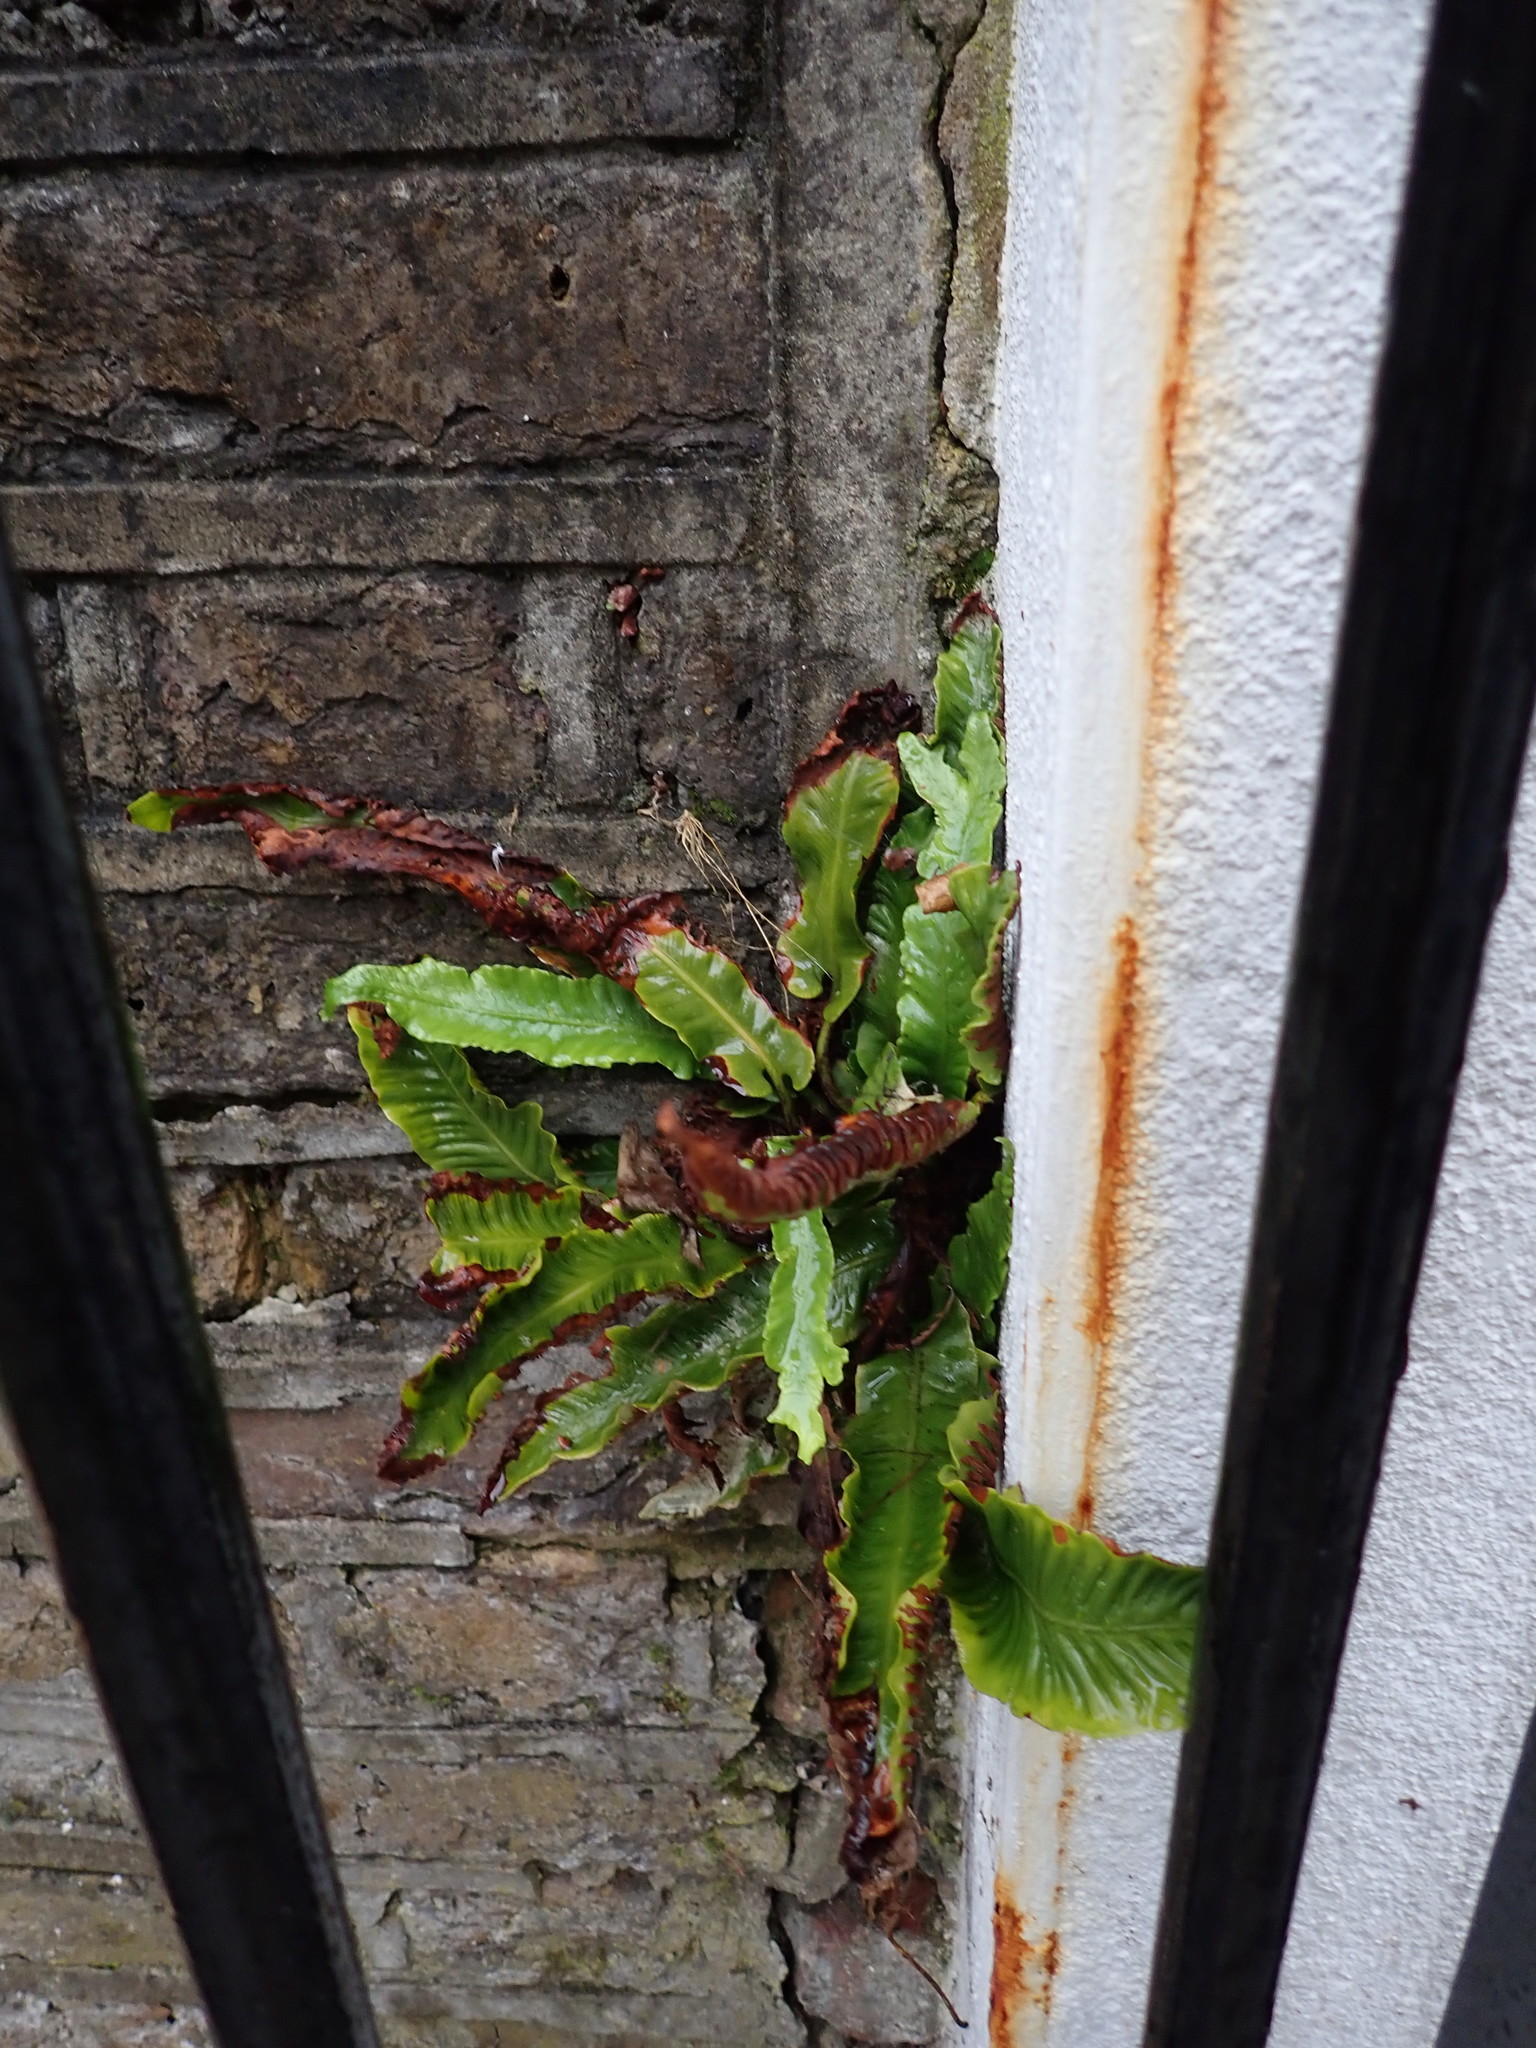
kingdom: Plantae
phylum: Tracheophyta
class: Polypodiopsida
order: Polypodiales
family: Aspleniaceae
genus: Asplenium
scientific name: Asplenium scolopendrium
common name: Hart's-tongue fern
